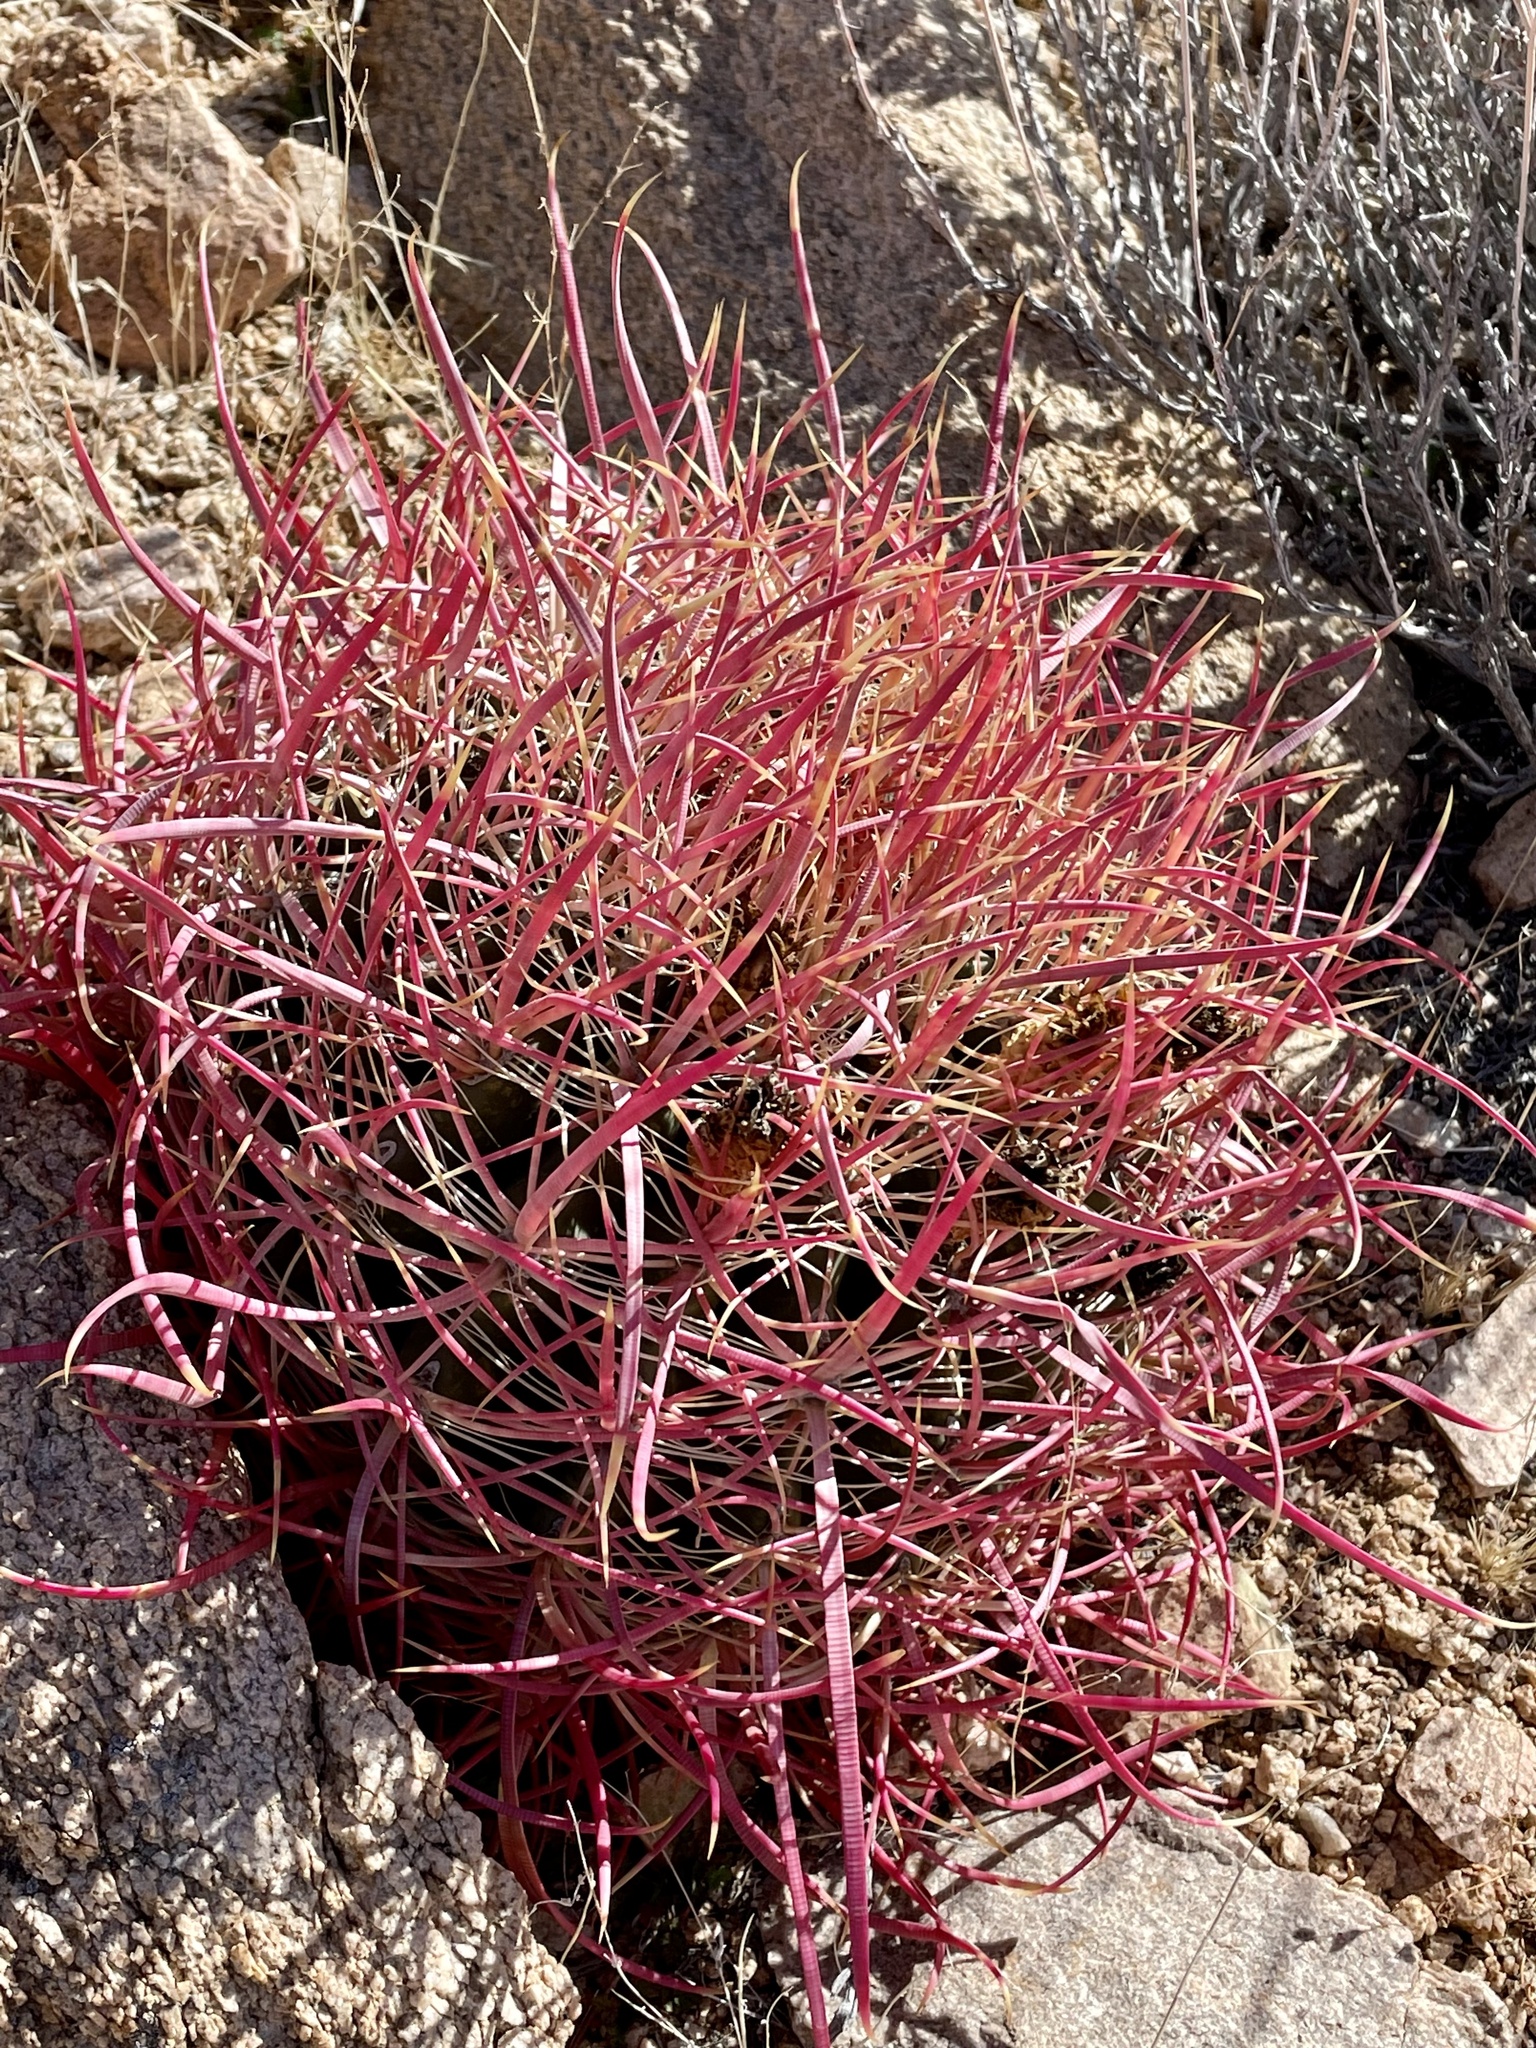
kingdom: Plantae
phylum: Tracheophyta
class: Magnoliopsida
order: Caryophyllales
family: Cactaceae
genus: Ferocactus
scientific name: Ferocactus cylindraceus
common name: California barrel cactus
